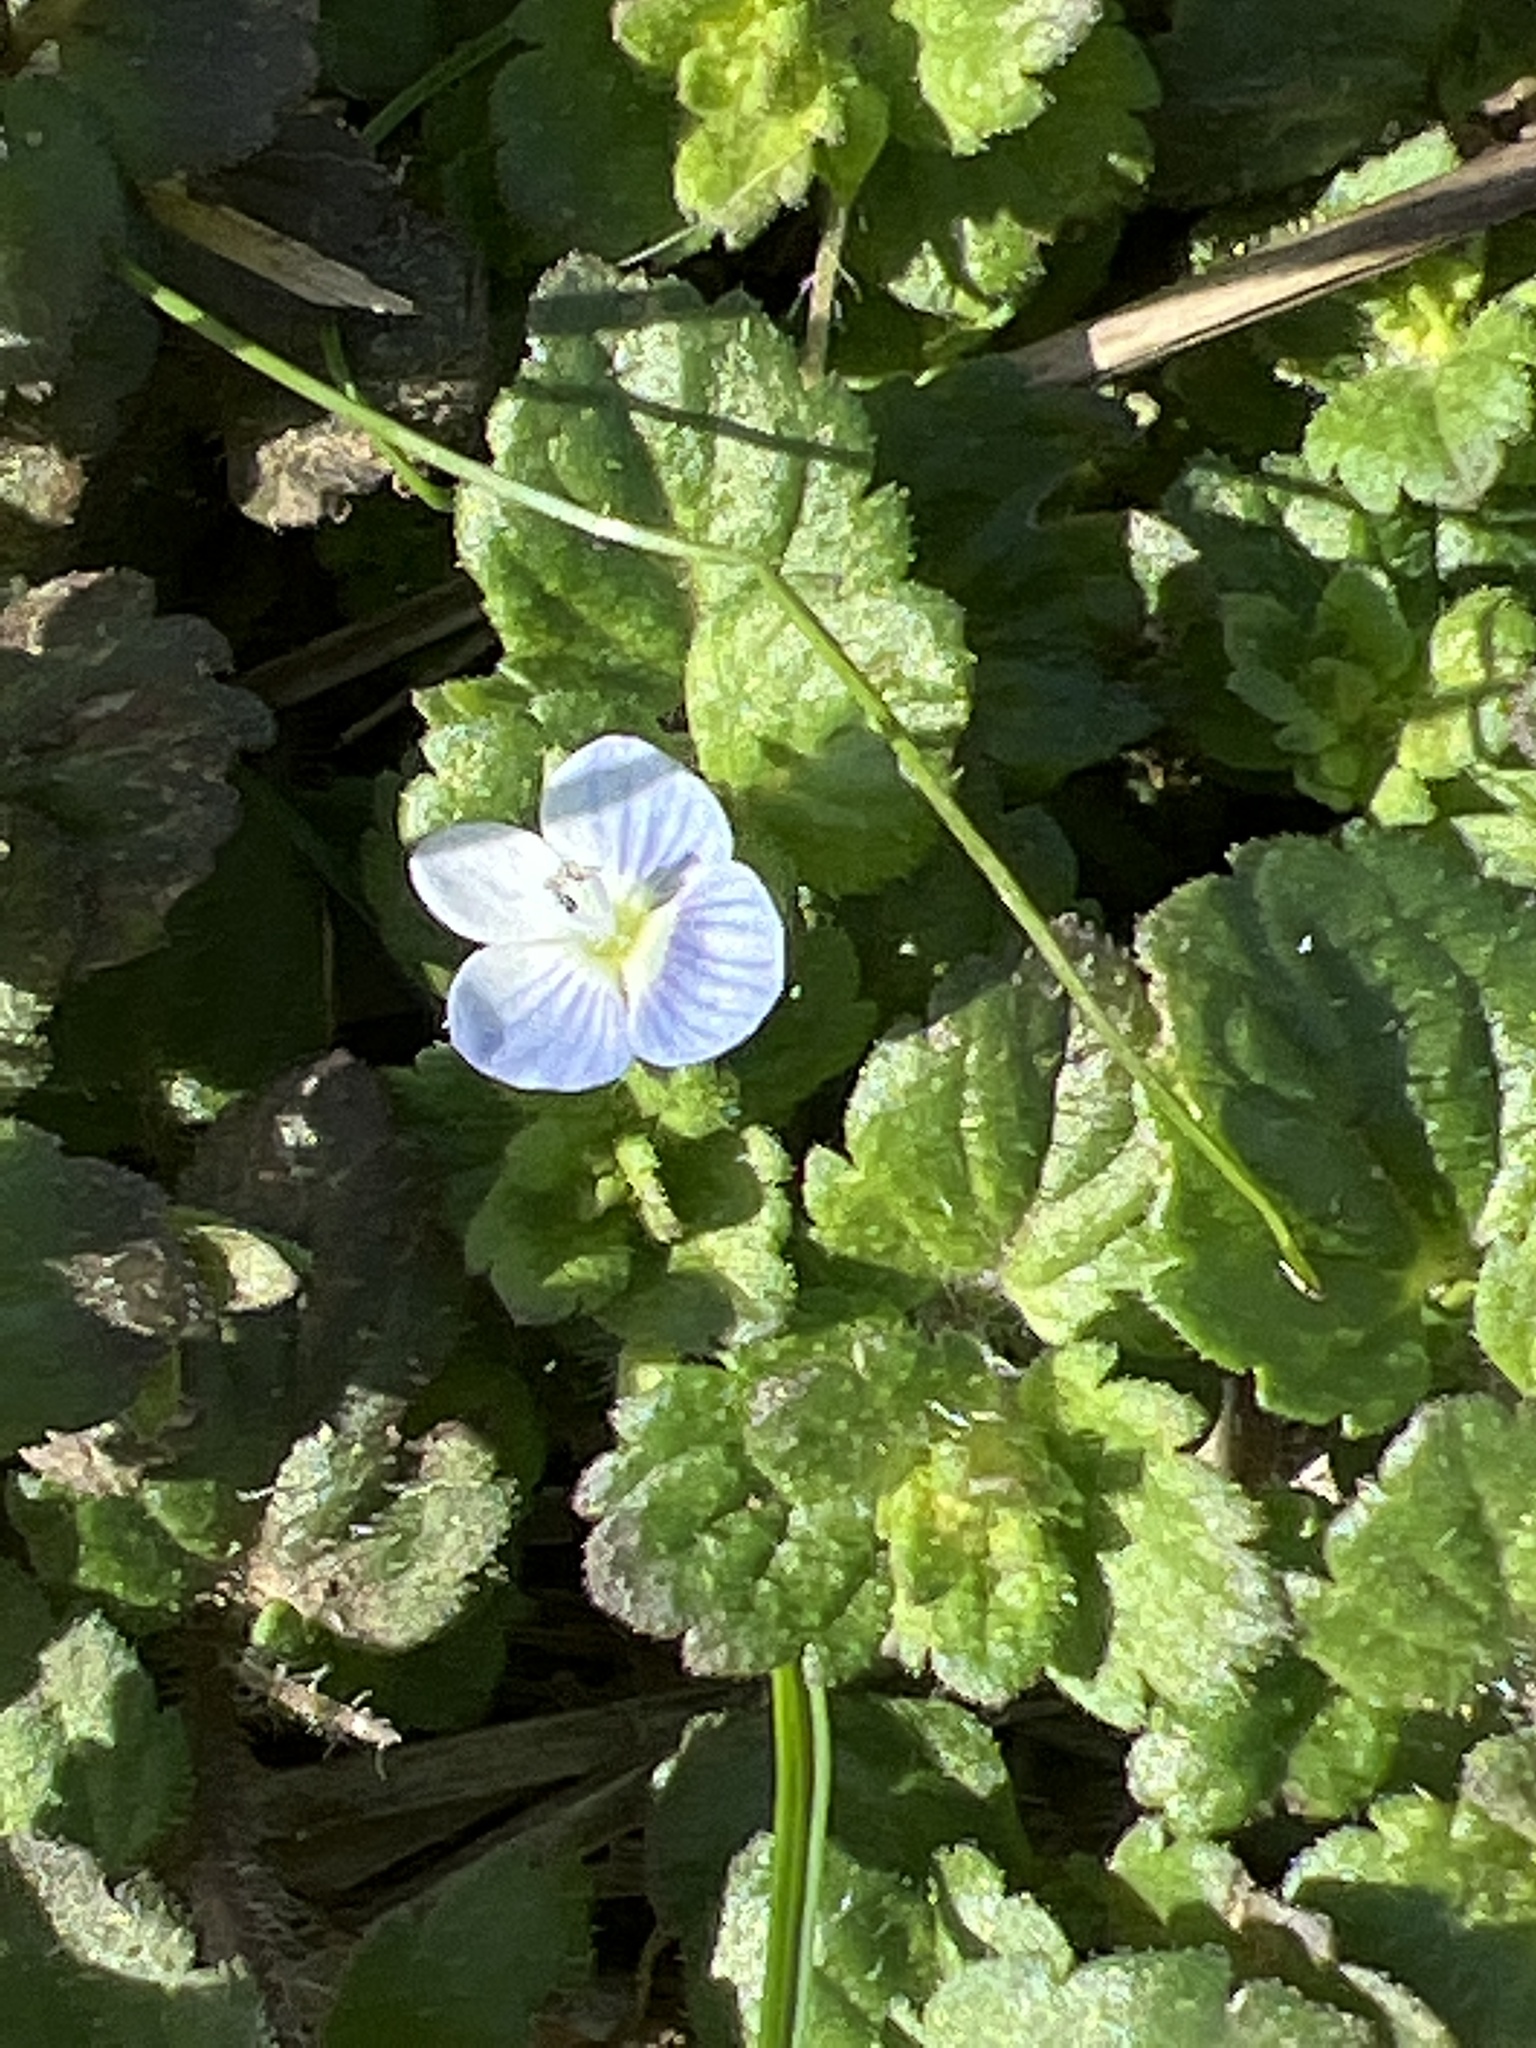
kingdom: Plantae
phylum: Tracheophyta
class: Magnoliopsida
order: Lamiales
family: Plantaginaceae
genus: Veronica
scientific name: Veronica persica
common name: Common field-speedwell
